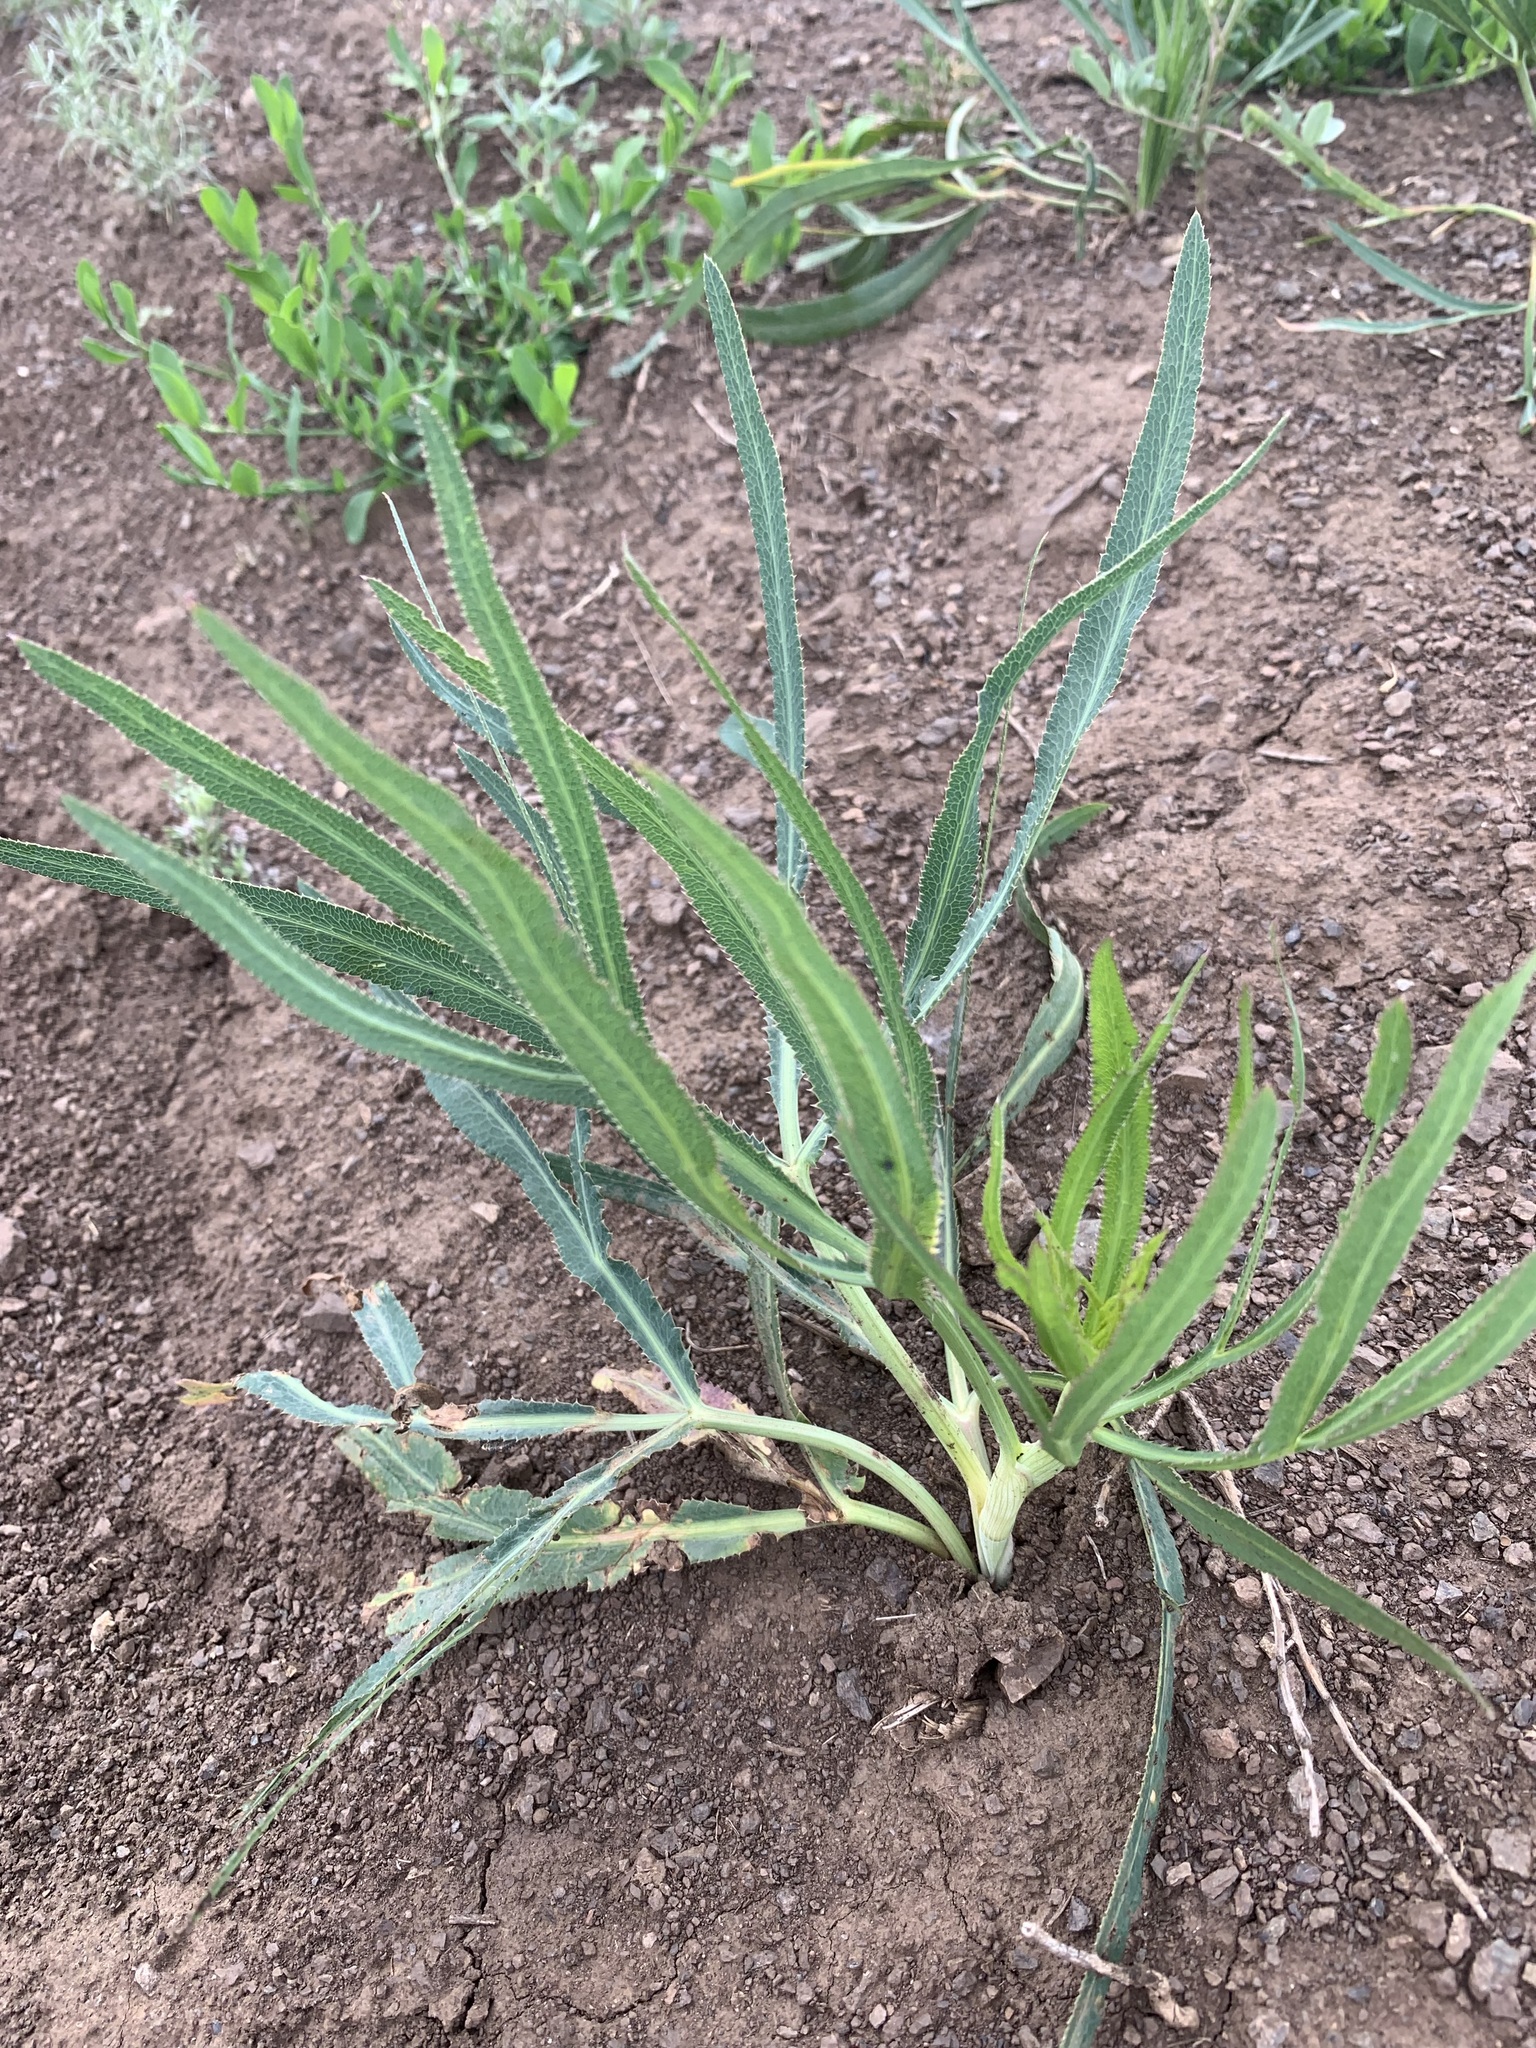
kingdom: Plantae
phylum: Tracheophyta
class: Magnoliopsida
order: Apiales
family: Apiaceae
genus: Falcaria
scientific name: Falcaria vulgaris
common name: Longleaf
